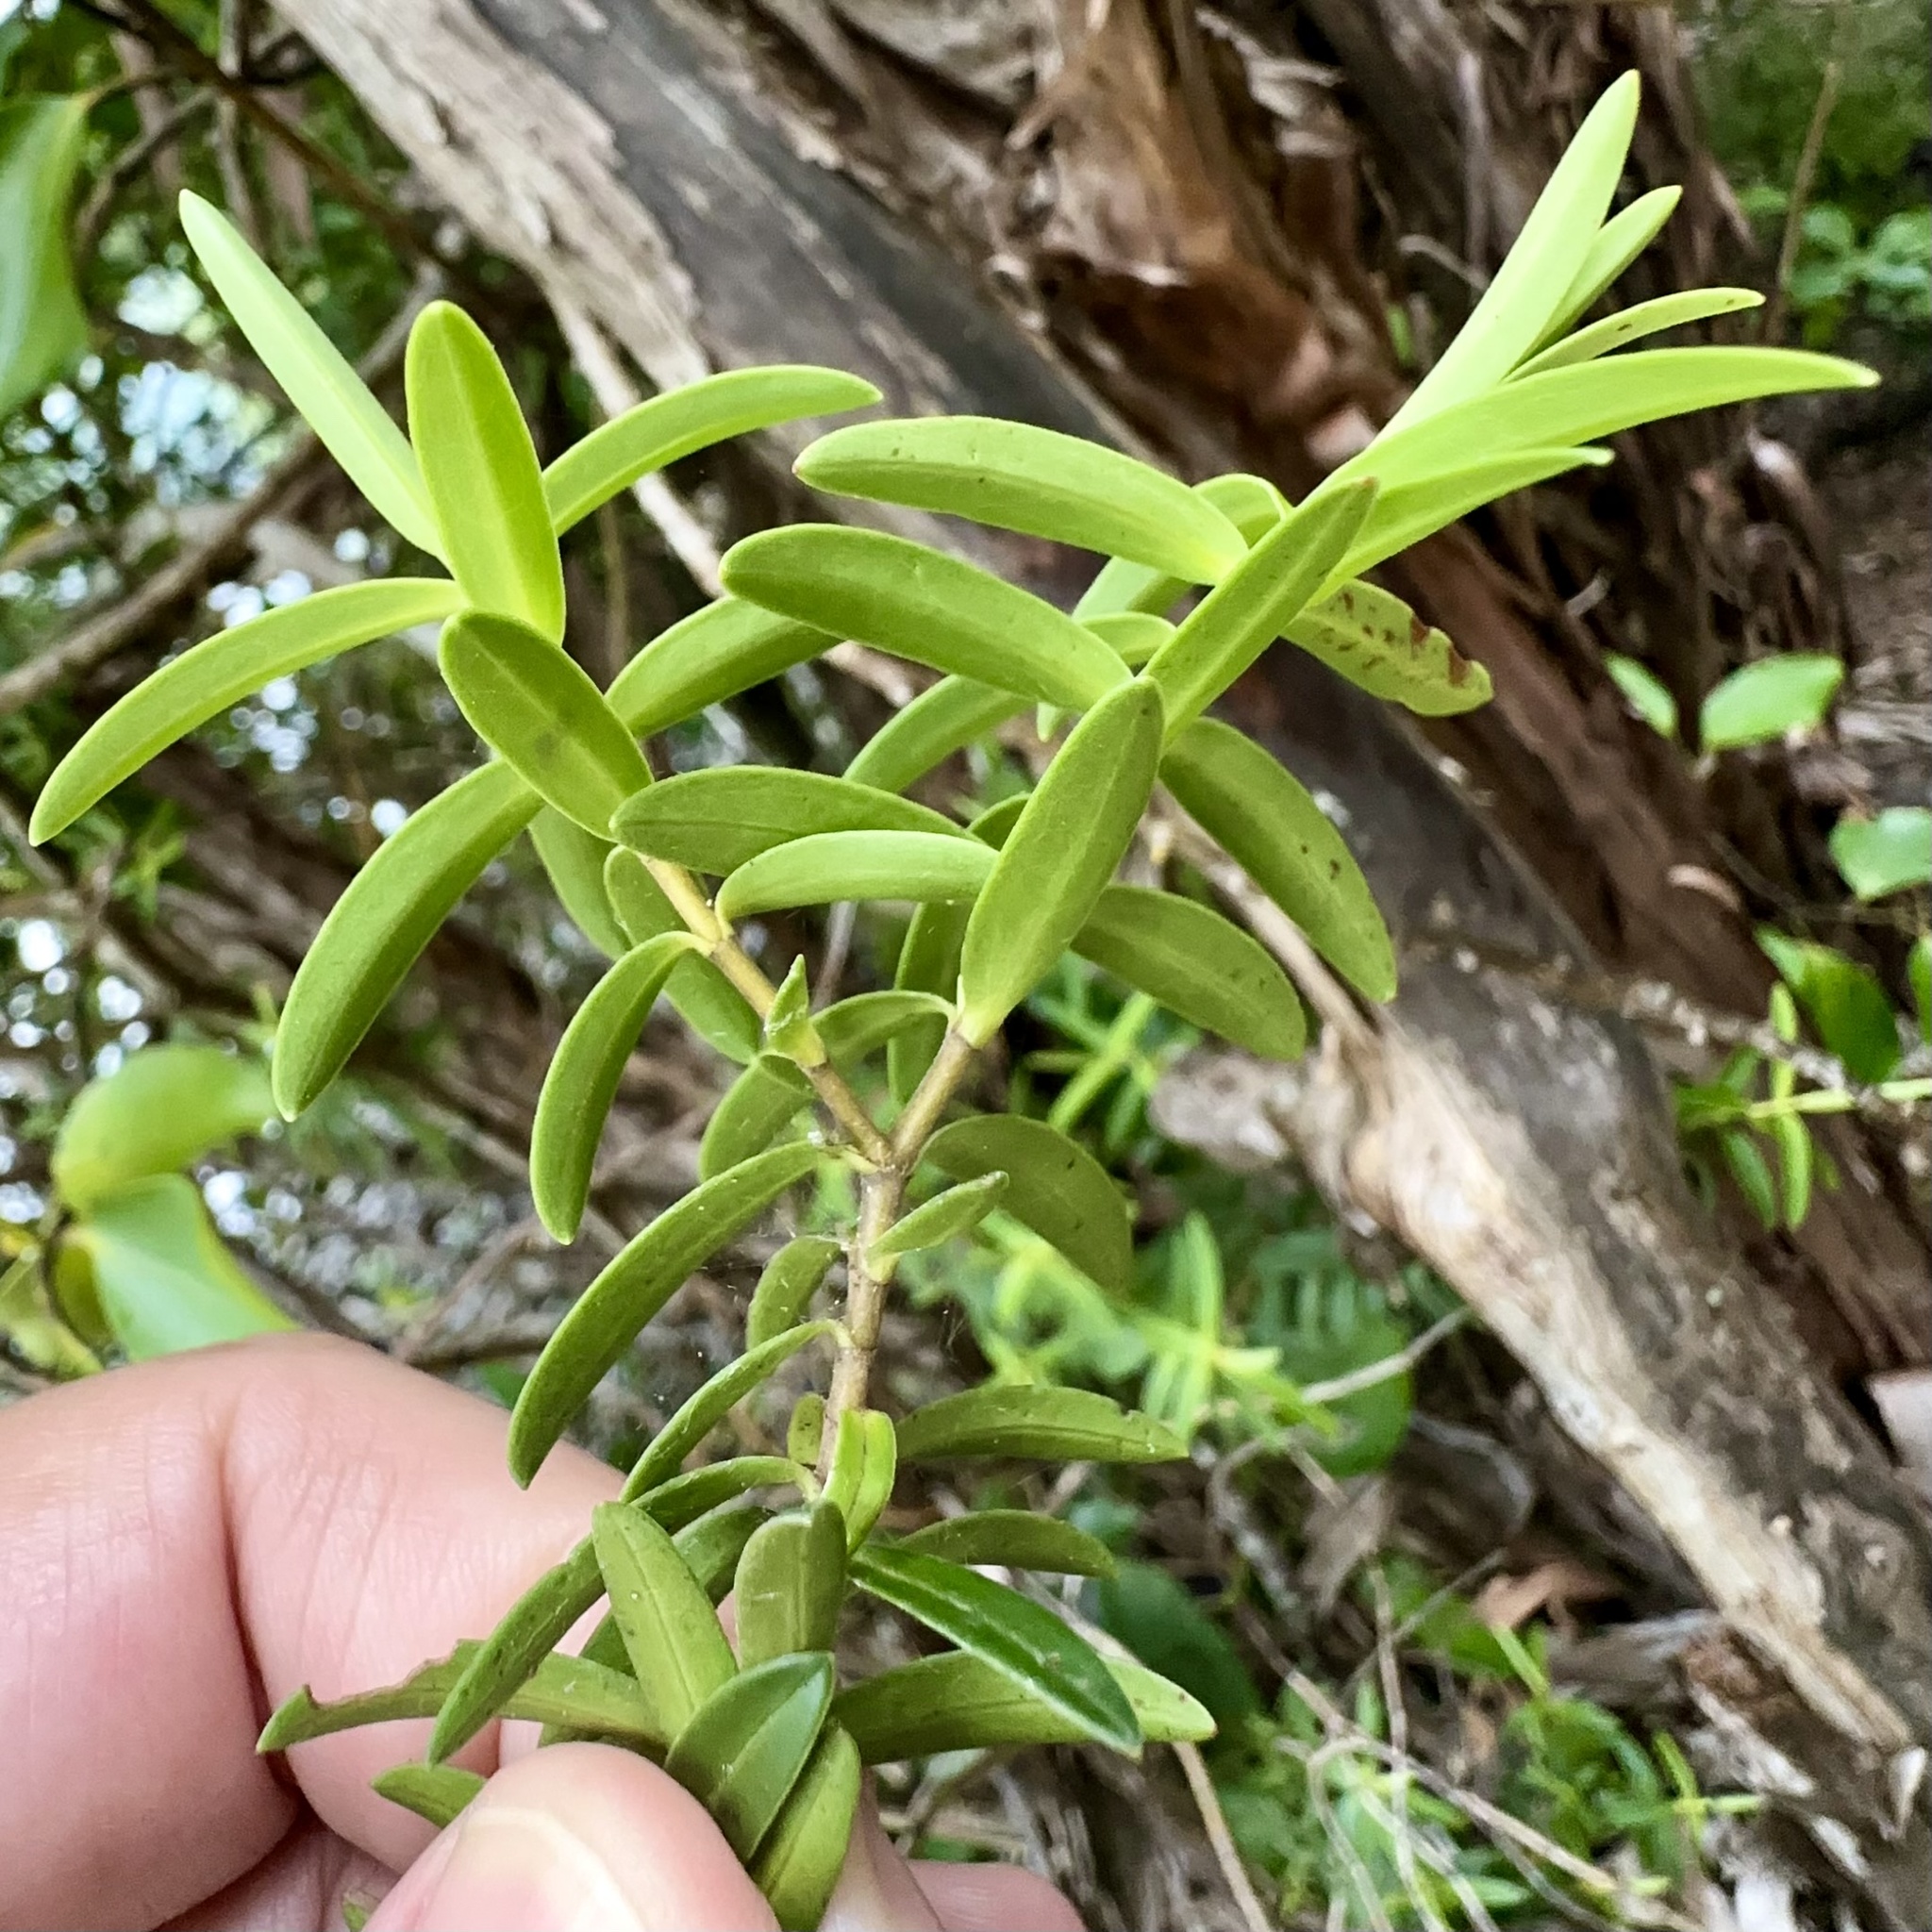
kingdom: Plantae
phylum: Tracheophyta
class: Magnoliopsida
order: Lamiales
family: Plantaginaceae
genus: Veronica
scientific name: Veronica leiophylla
